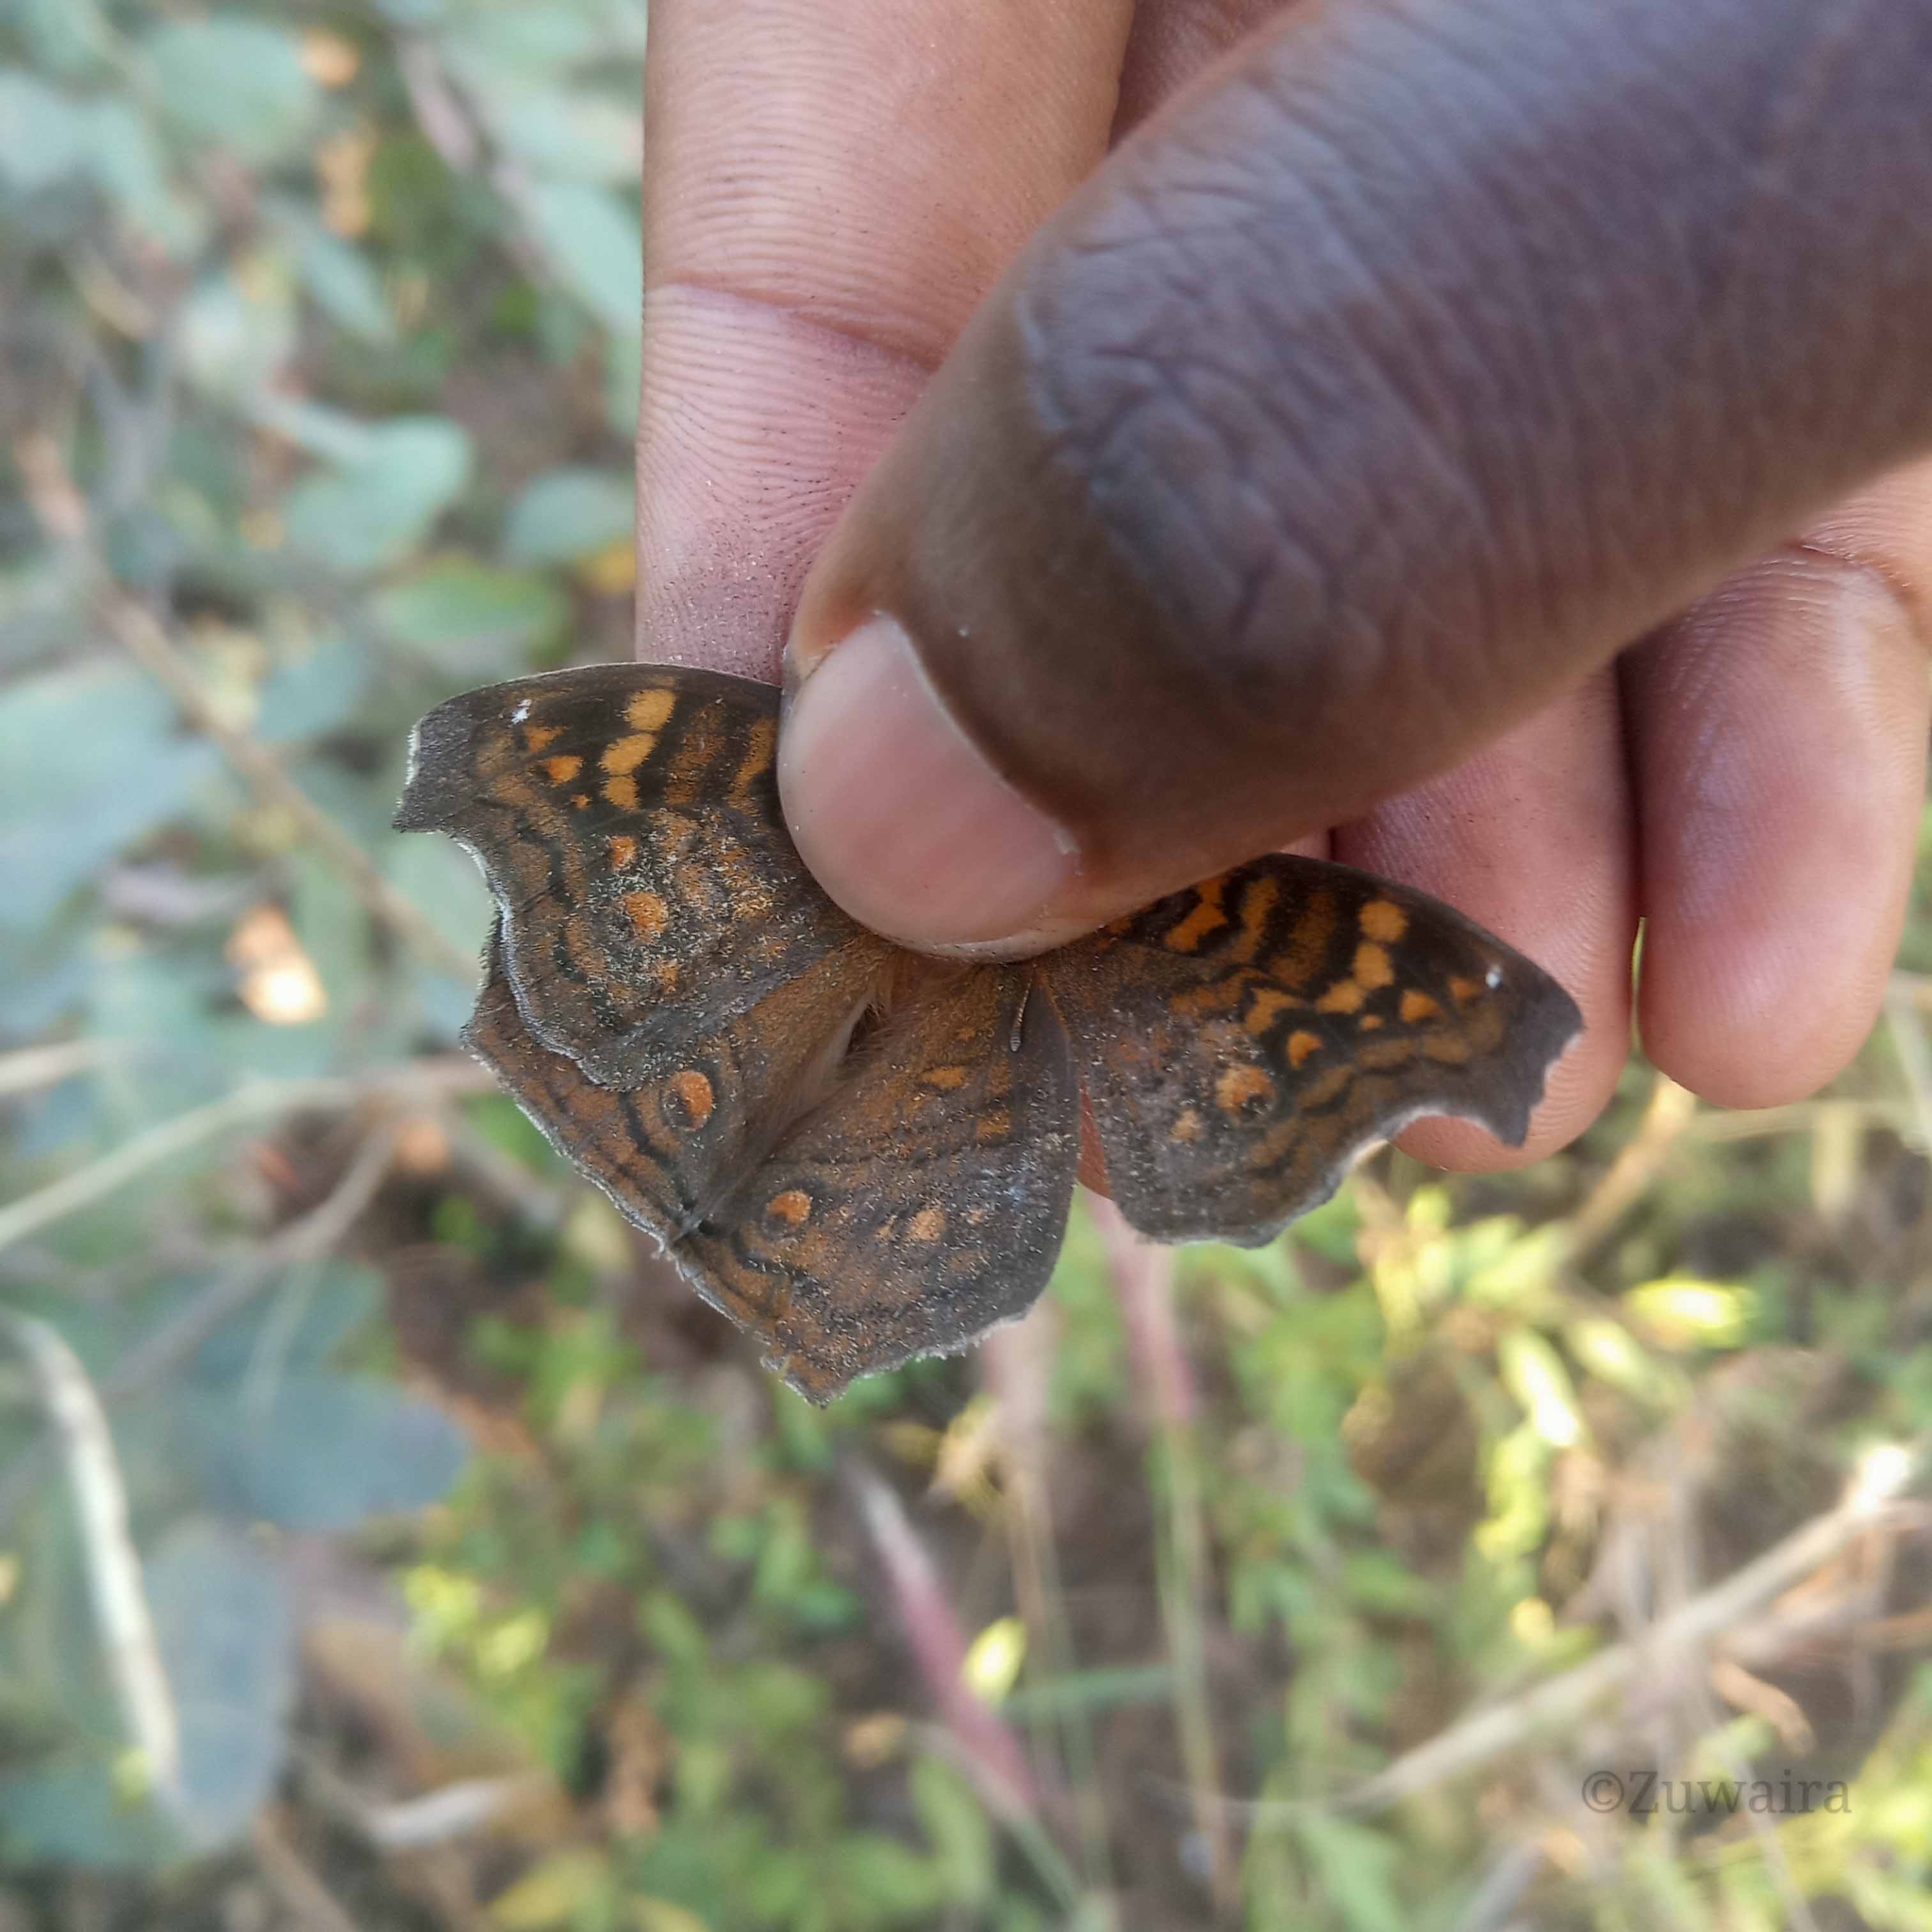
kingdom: Animalia
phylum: Arthropoda
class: Insecta
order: Lepidoptera
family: Nymphalidae
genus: Junonia
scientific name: Junonia chorimene
